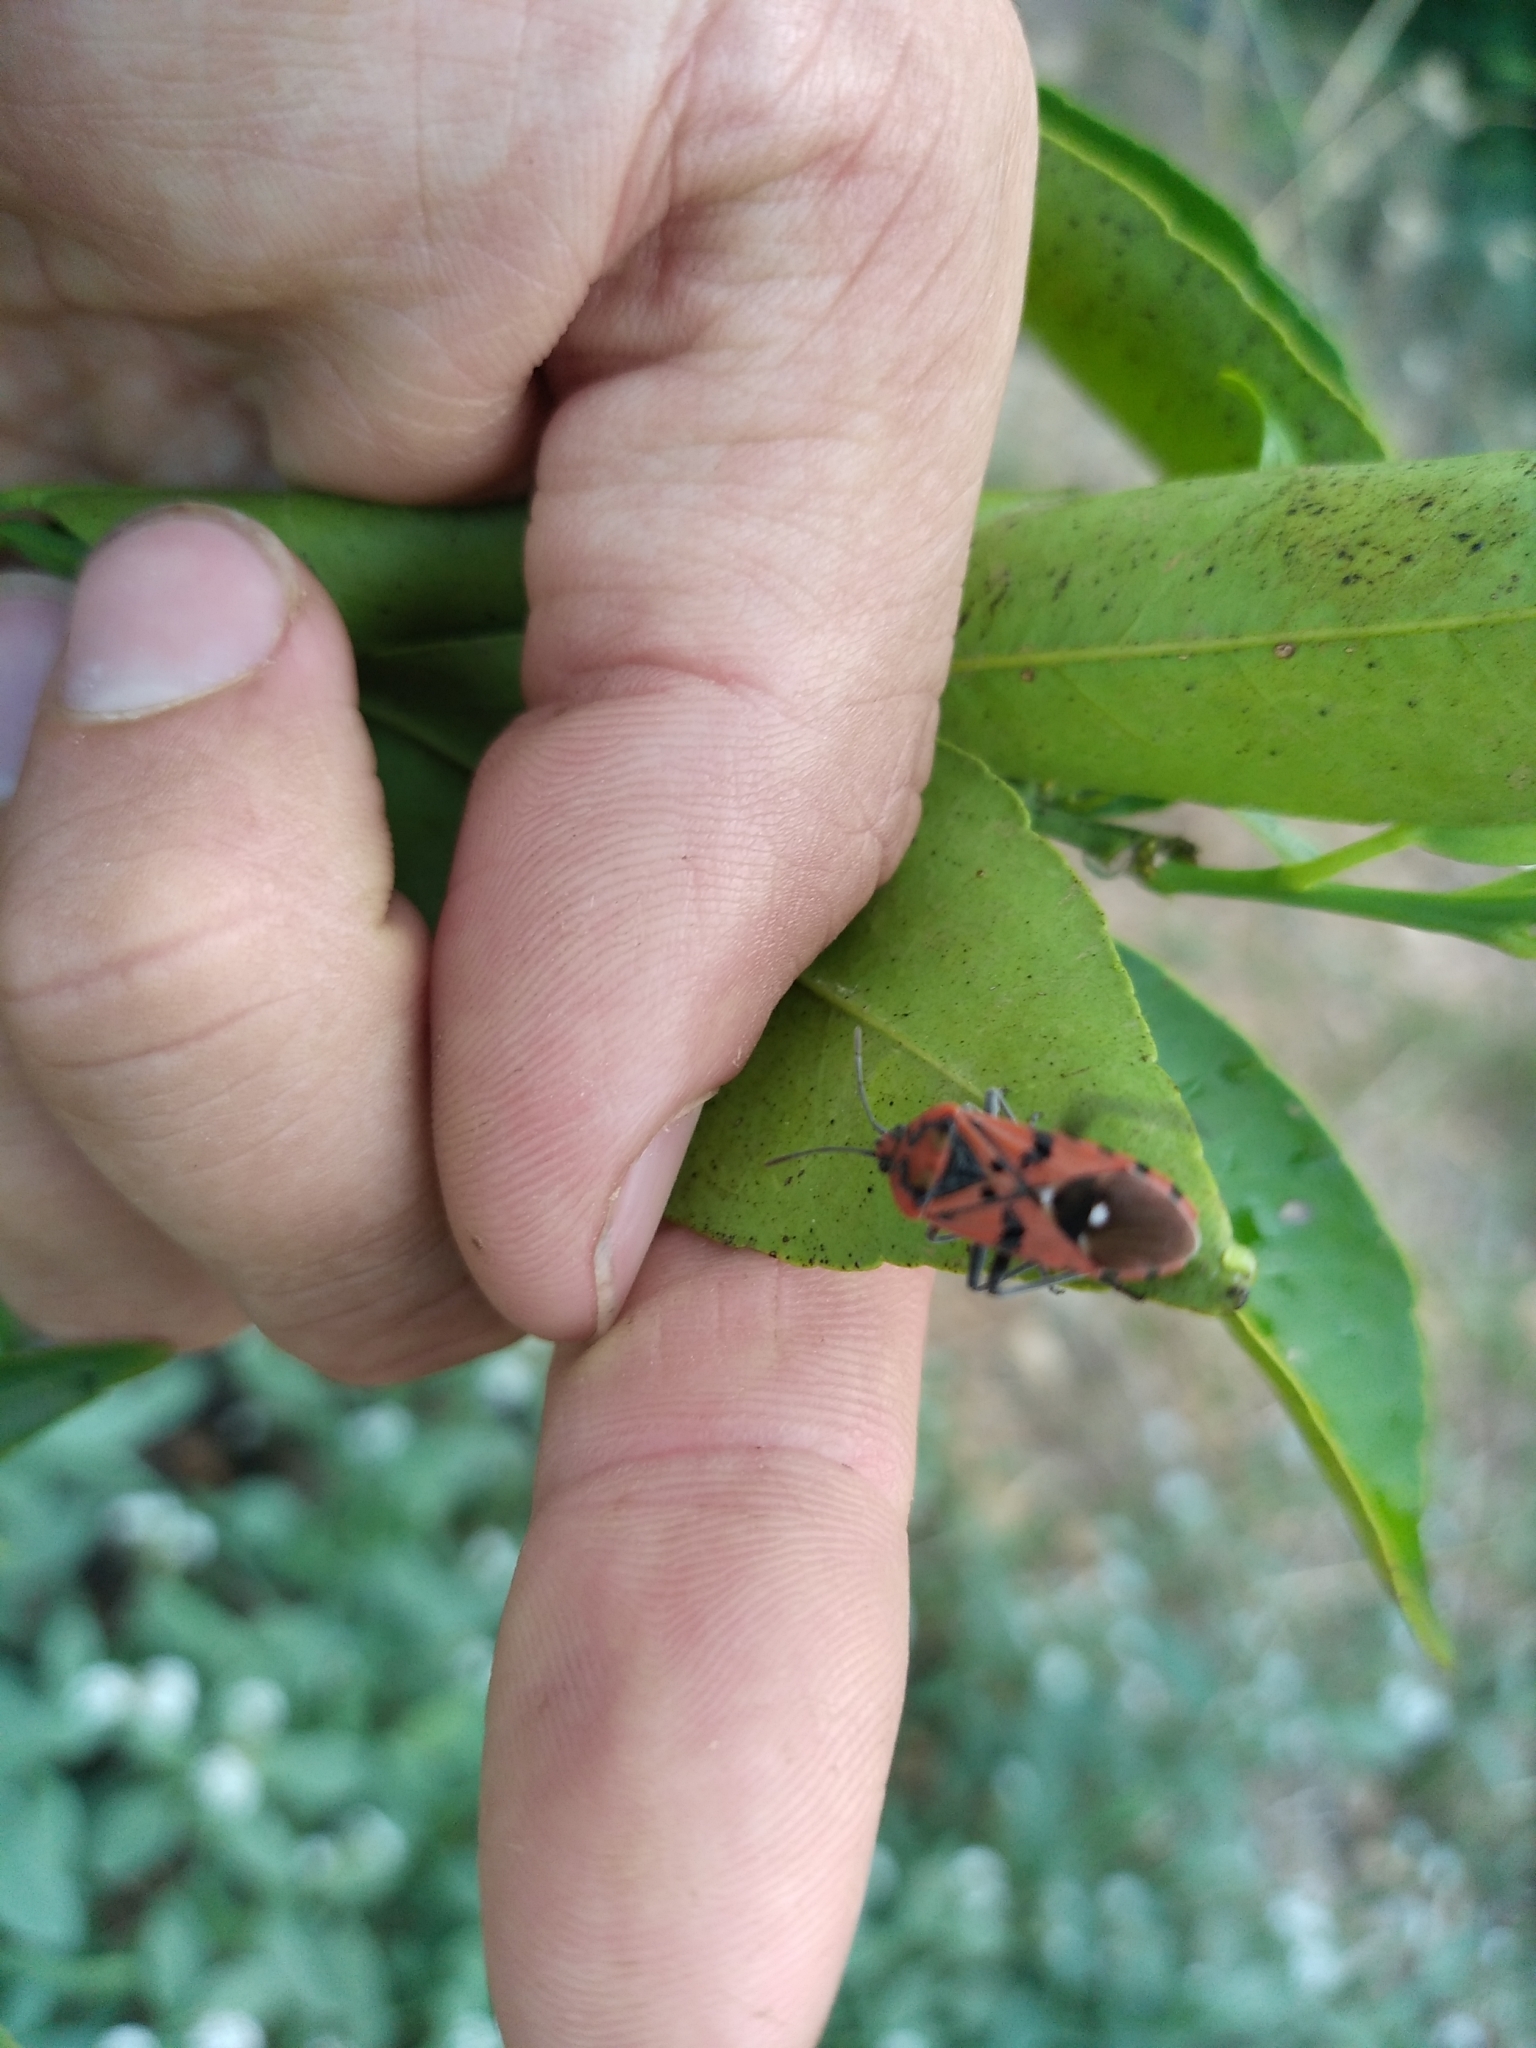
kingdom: Animalia
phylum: Arthropoda
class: Insecta
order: Hemiptera
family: Lygaeidae
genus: Spilostethus
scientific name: Spilostethus pandurus
